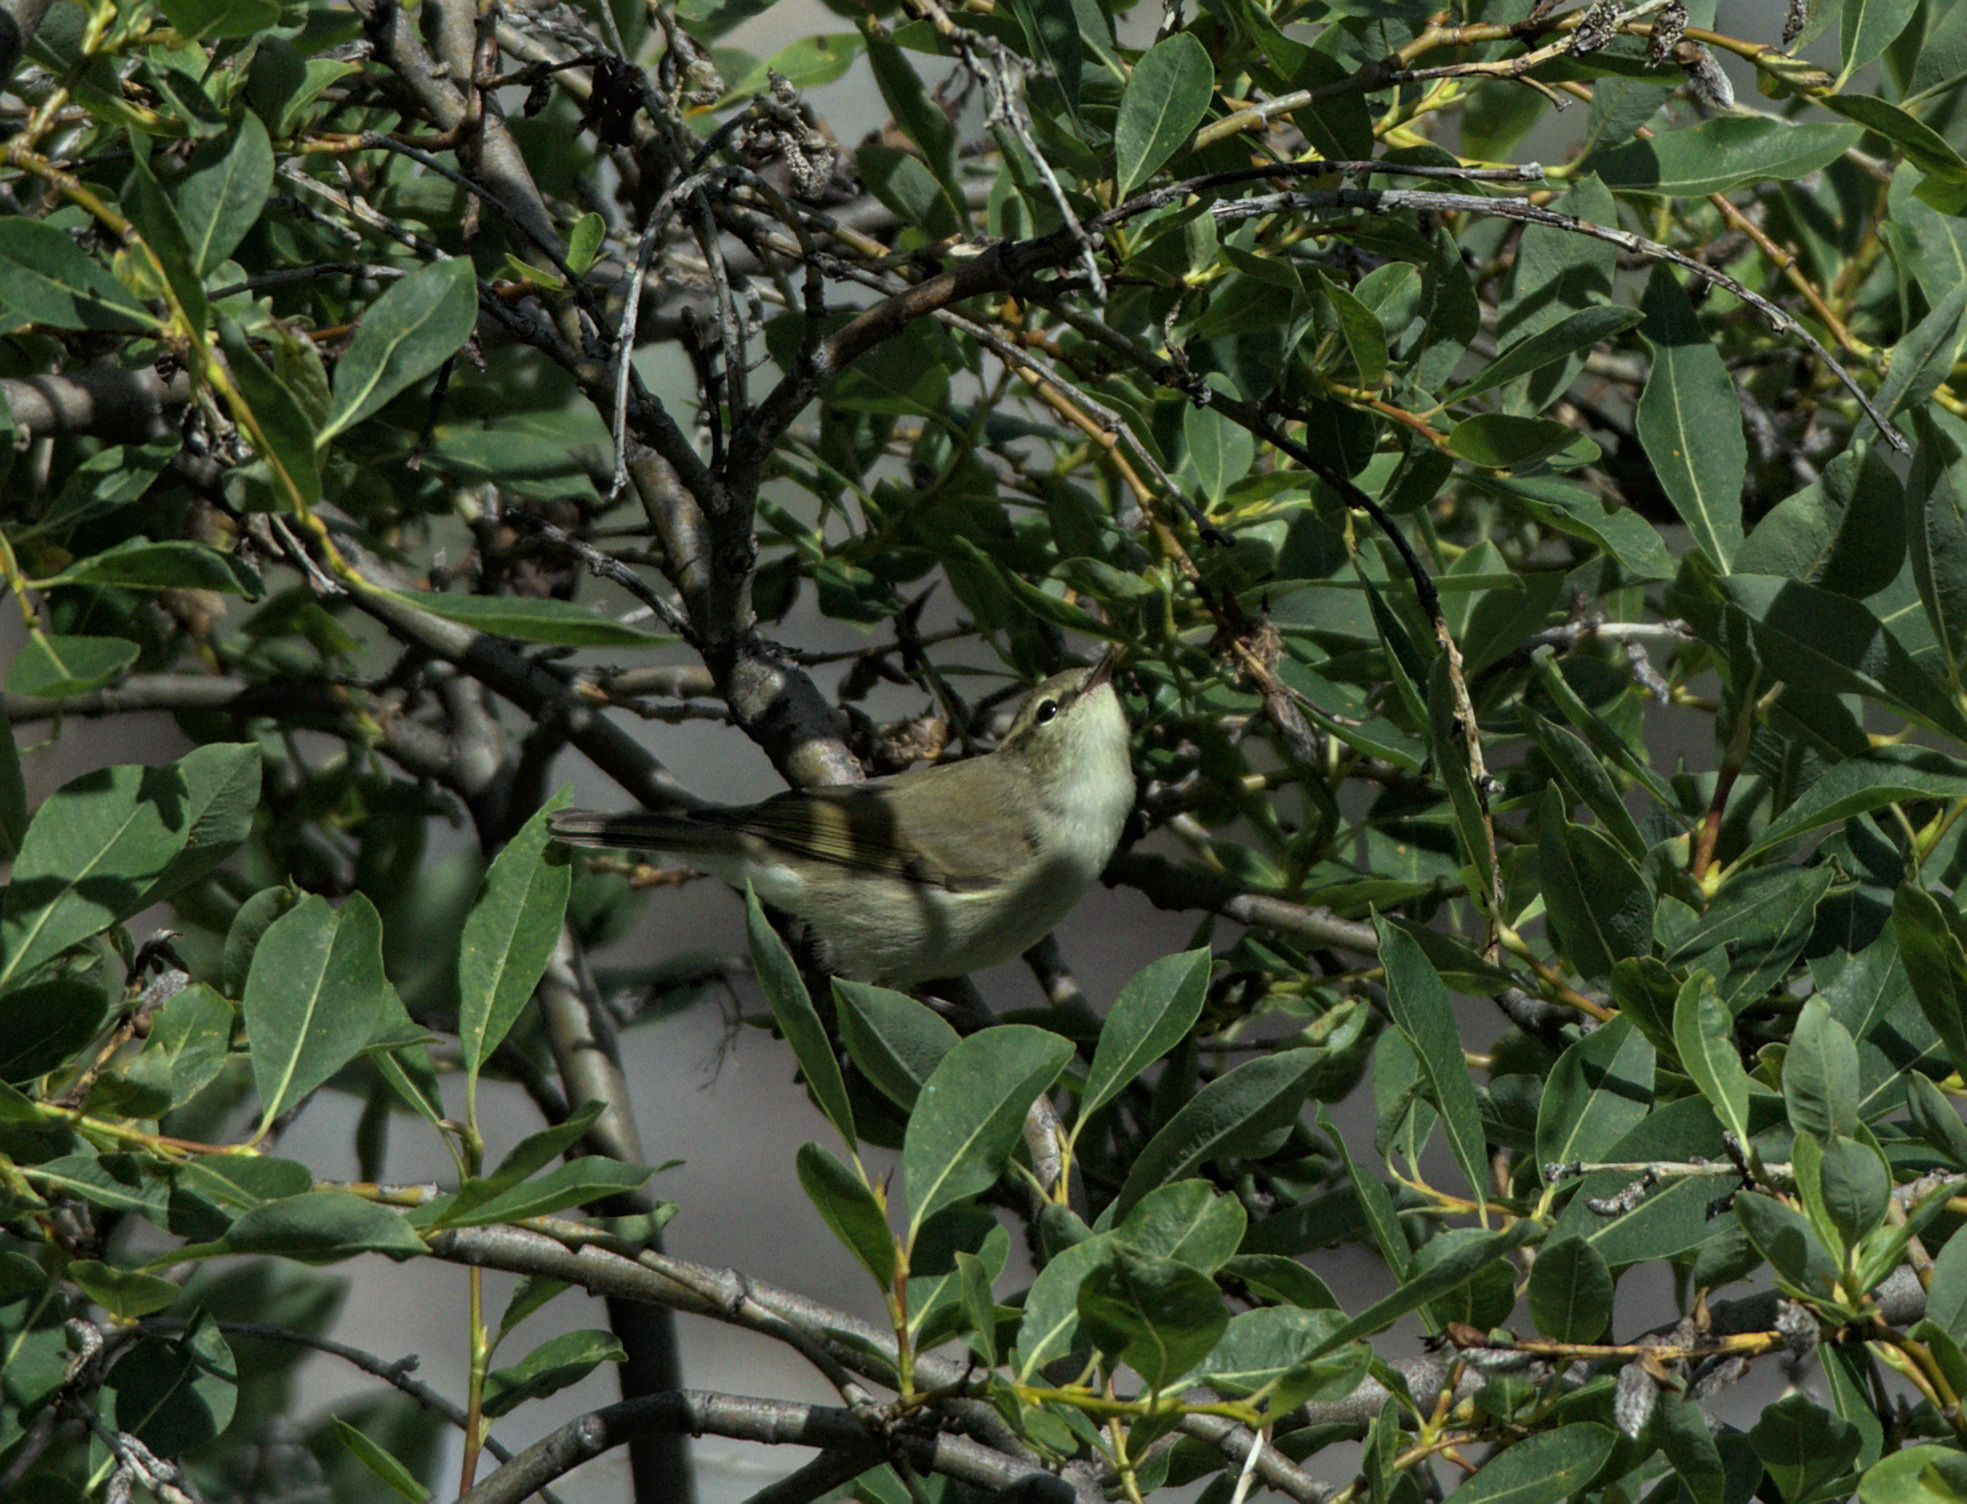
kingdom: Animalia
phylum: Chordata
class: Aves
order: Passeriformes
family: Phylloscopidae
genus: Phylloscopus
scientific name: Phylloscopus trochiloides
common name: Greenish warbler
